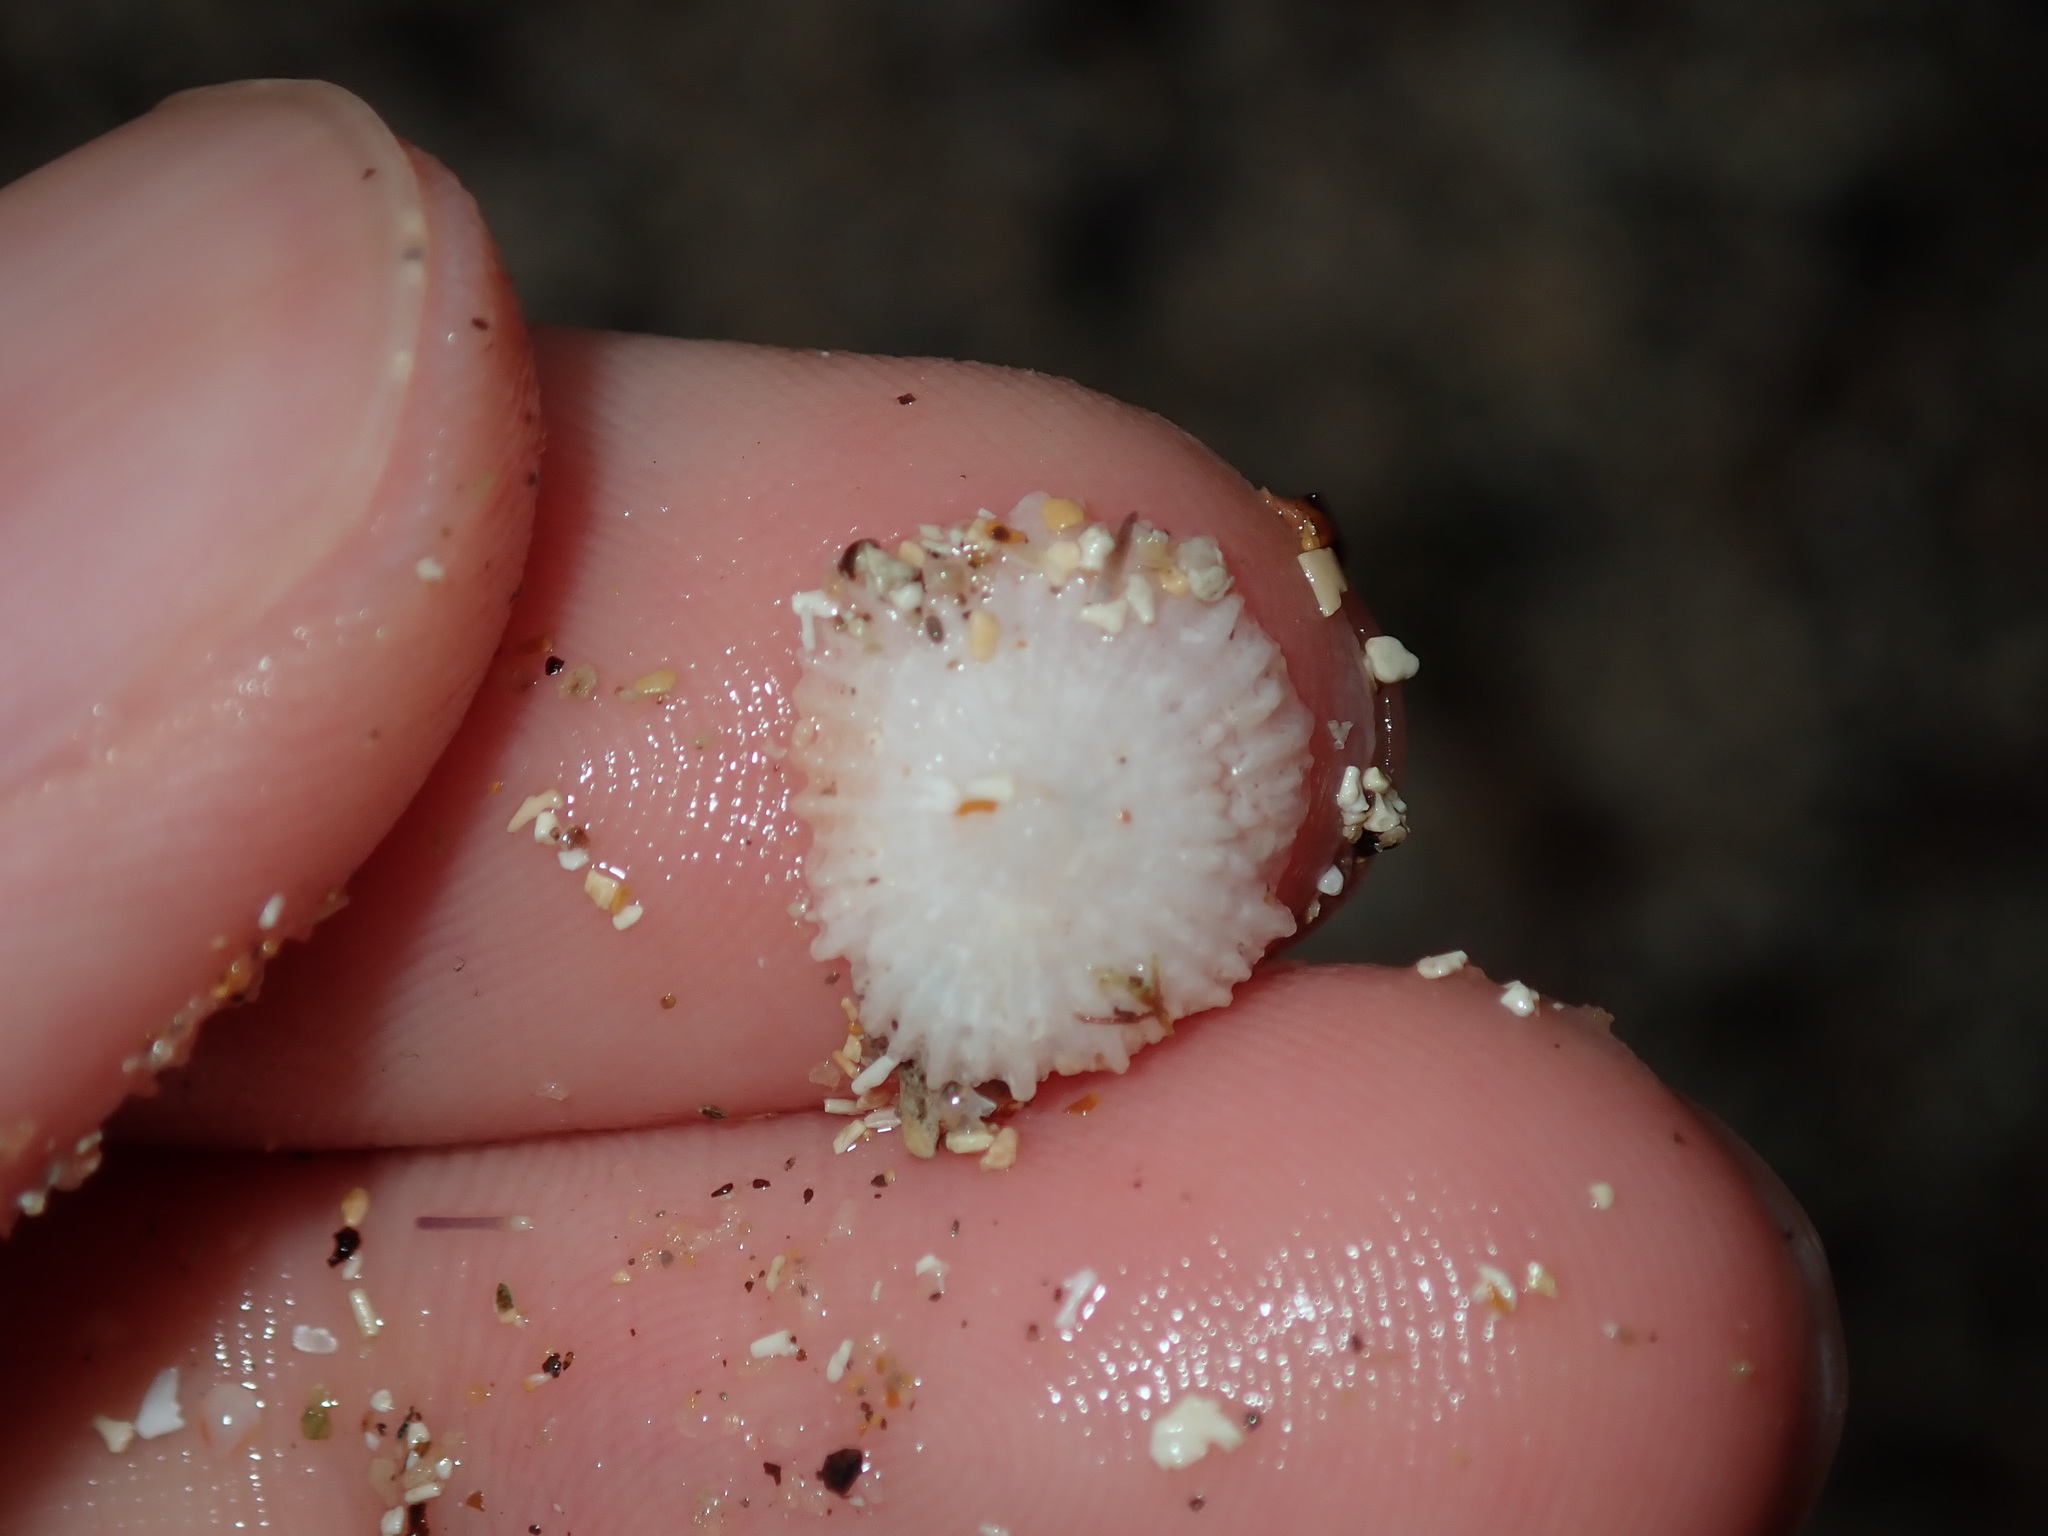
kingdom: Animalia
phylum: Mollusca
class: Gastropoda
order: Ellobiida
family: Trimusculidae
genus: Trimusculus
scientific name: Trimusculus conicus
